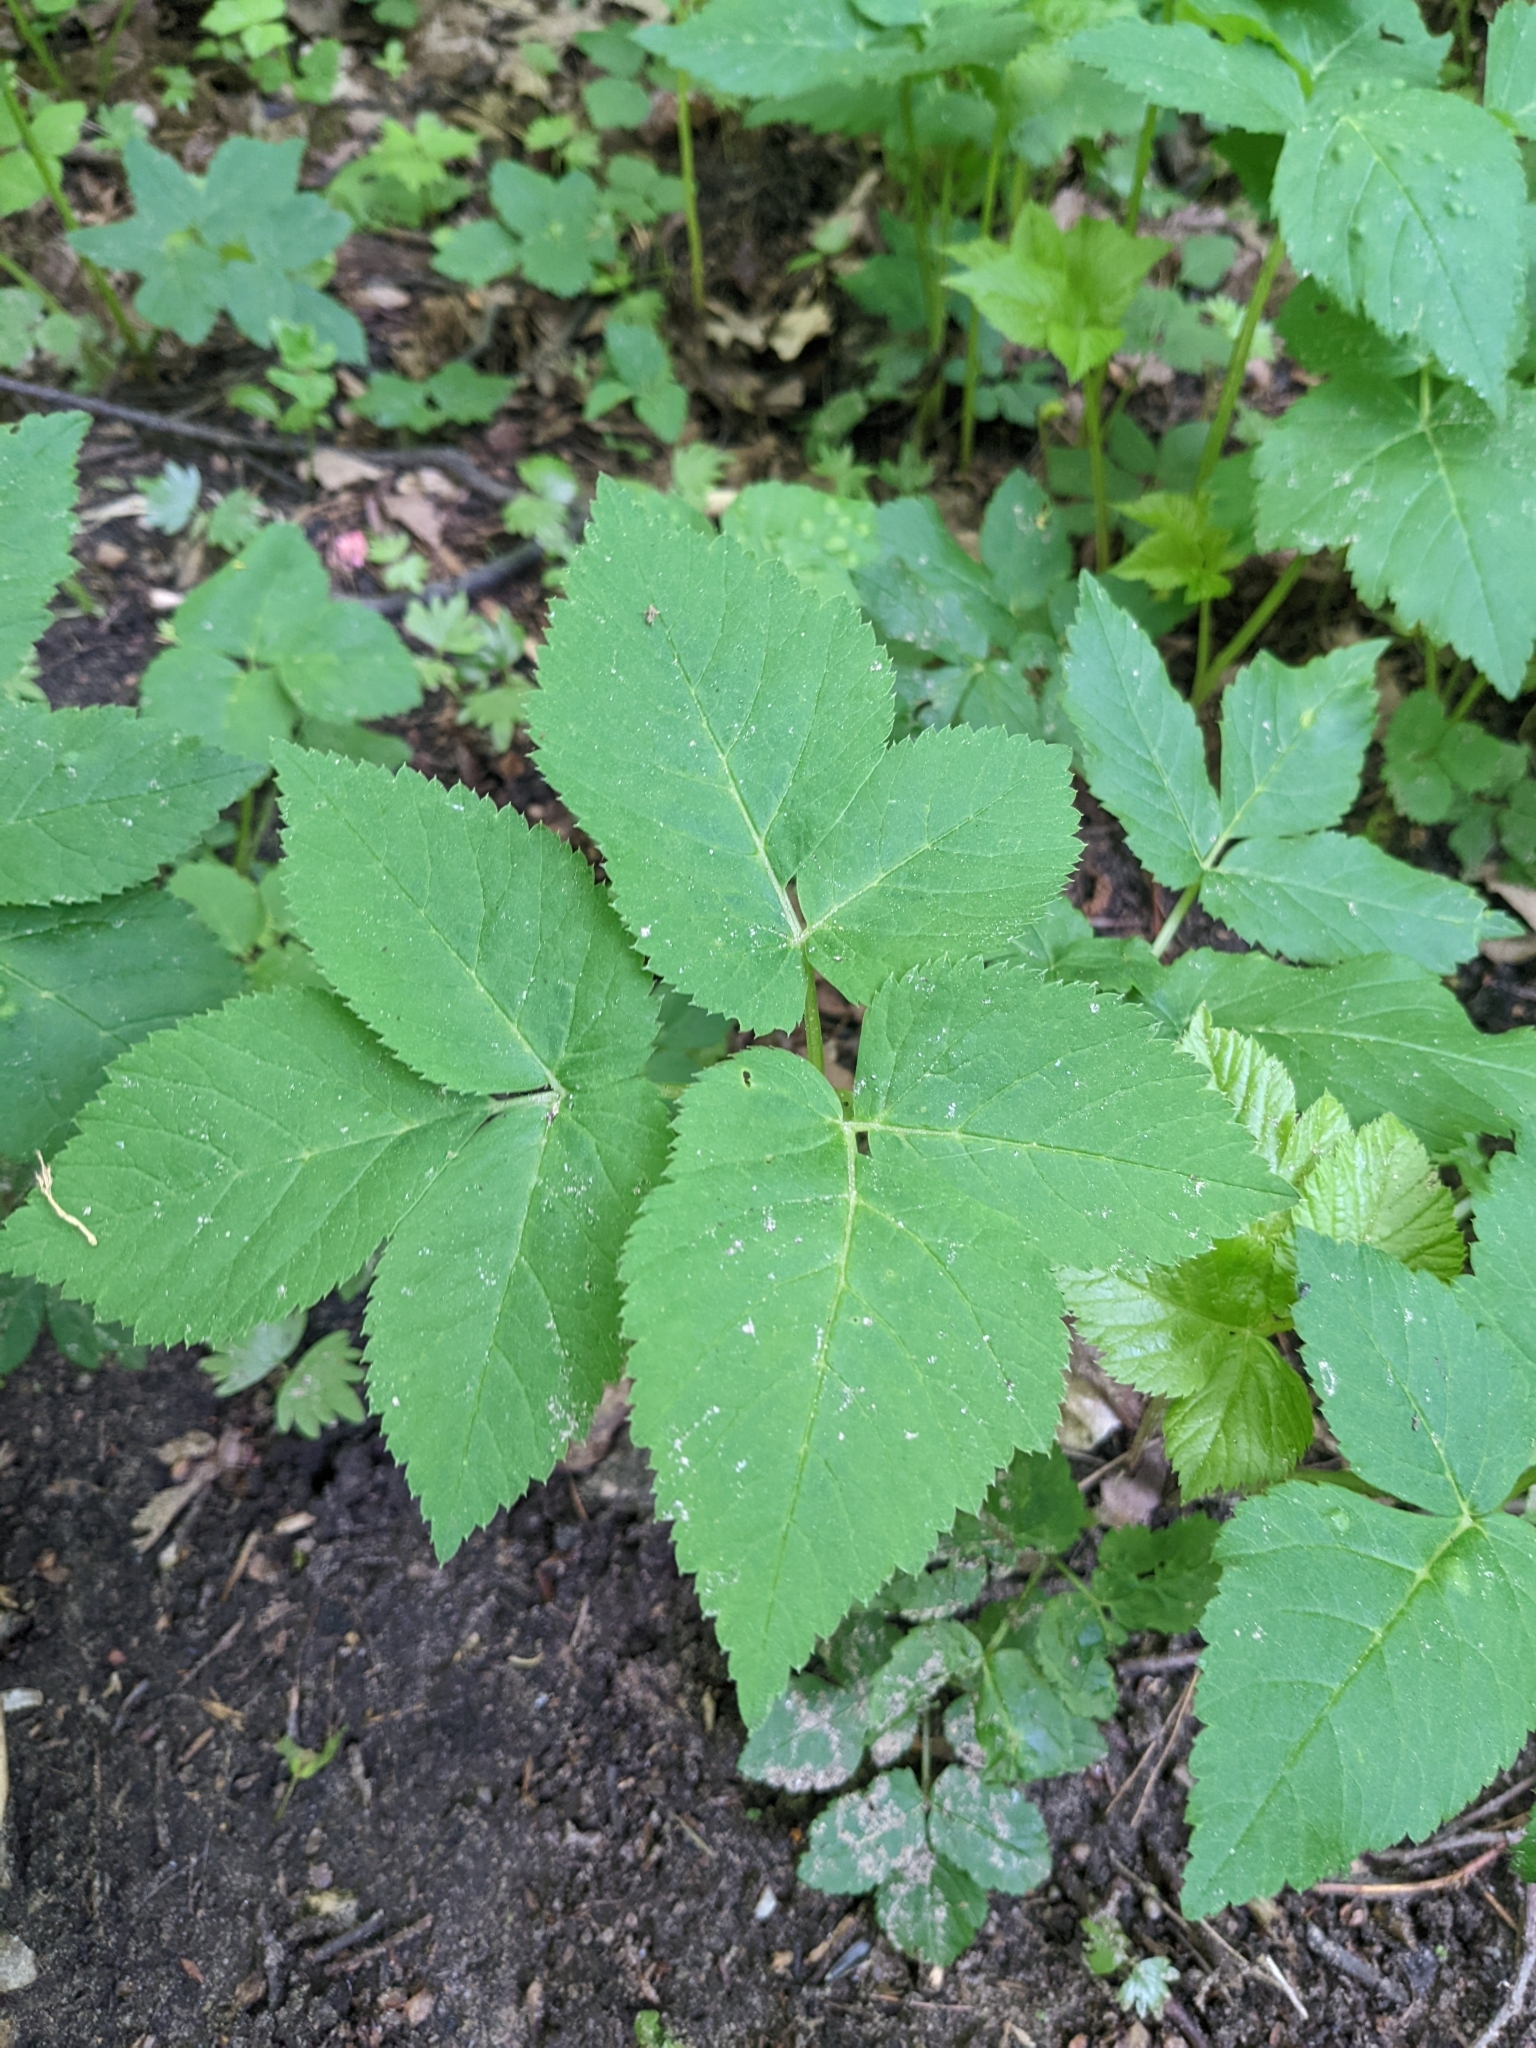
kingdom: Plantae
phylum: Tracheophyta
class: Magnoliopsida
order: Apiales
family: Apiaceae
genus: Aegopodium
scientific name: Aegopodium podagraria
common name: Ground-elder
